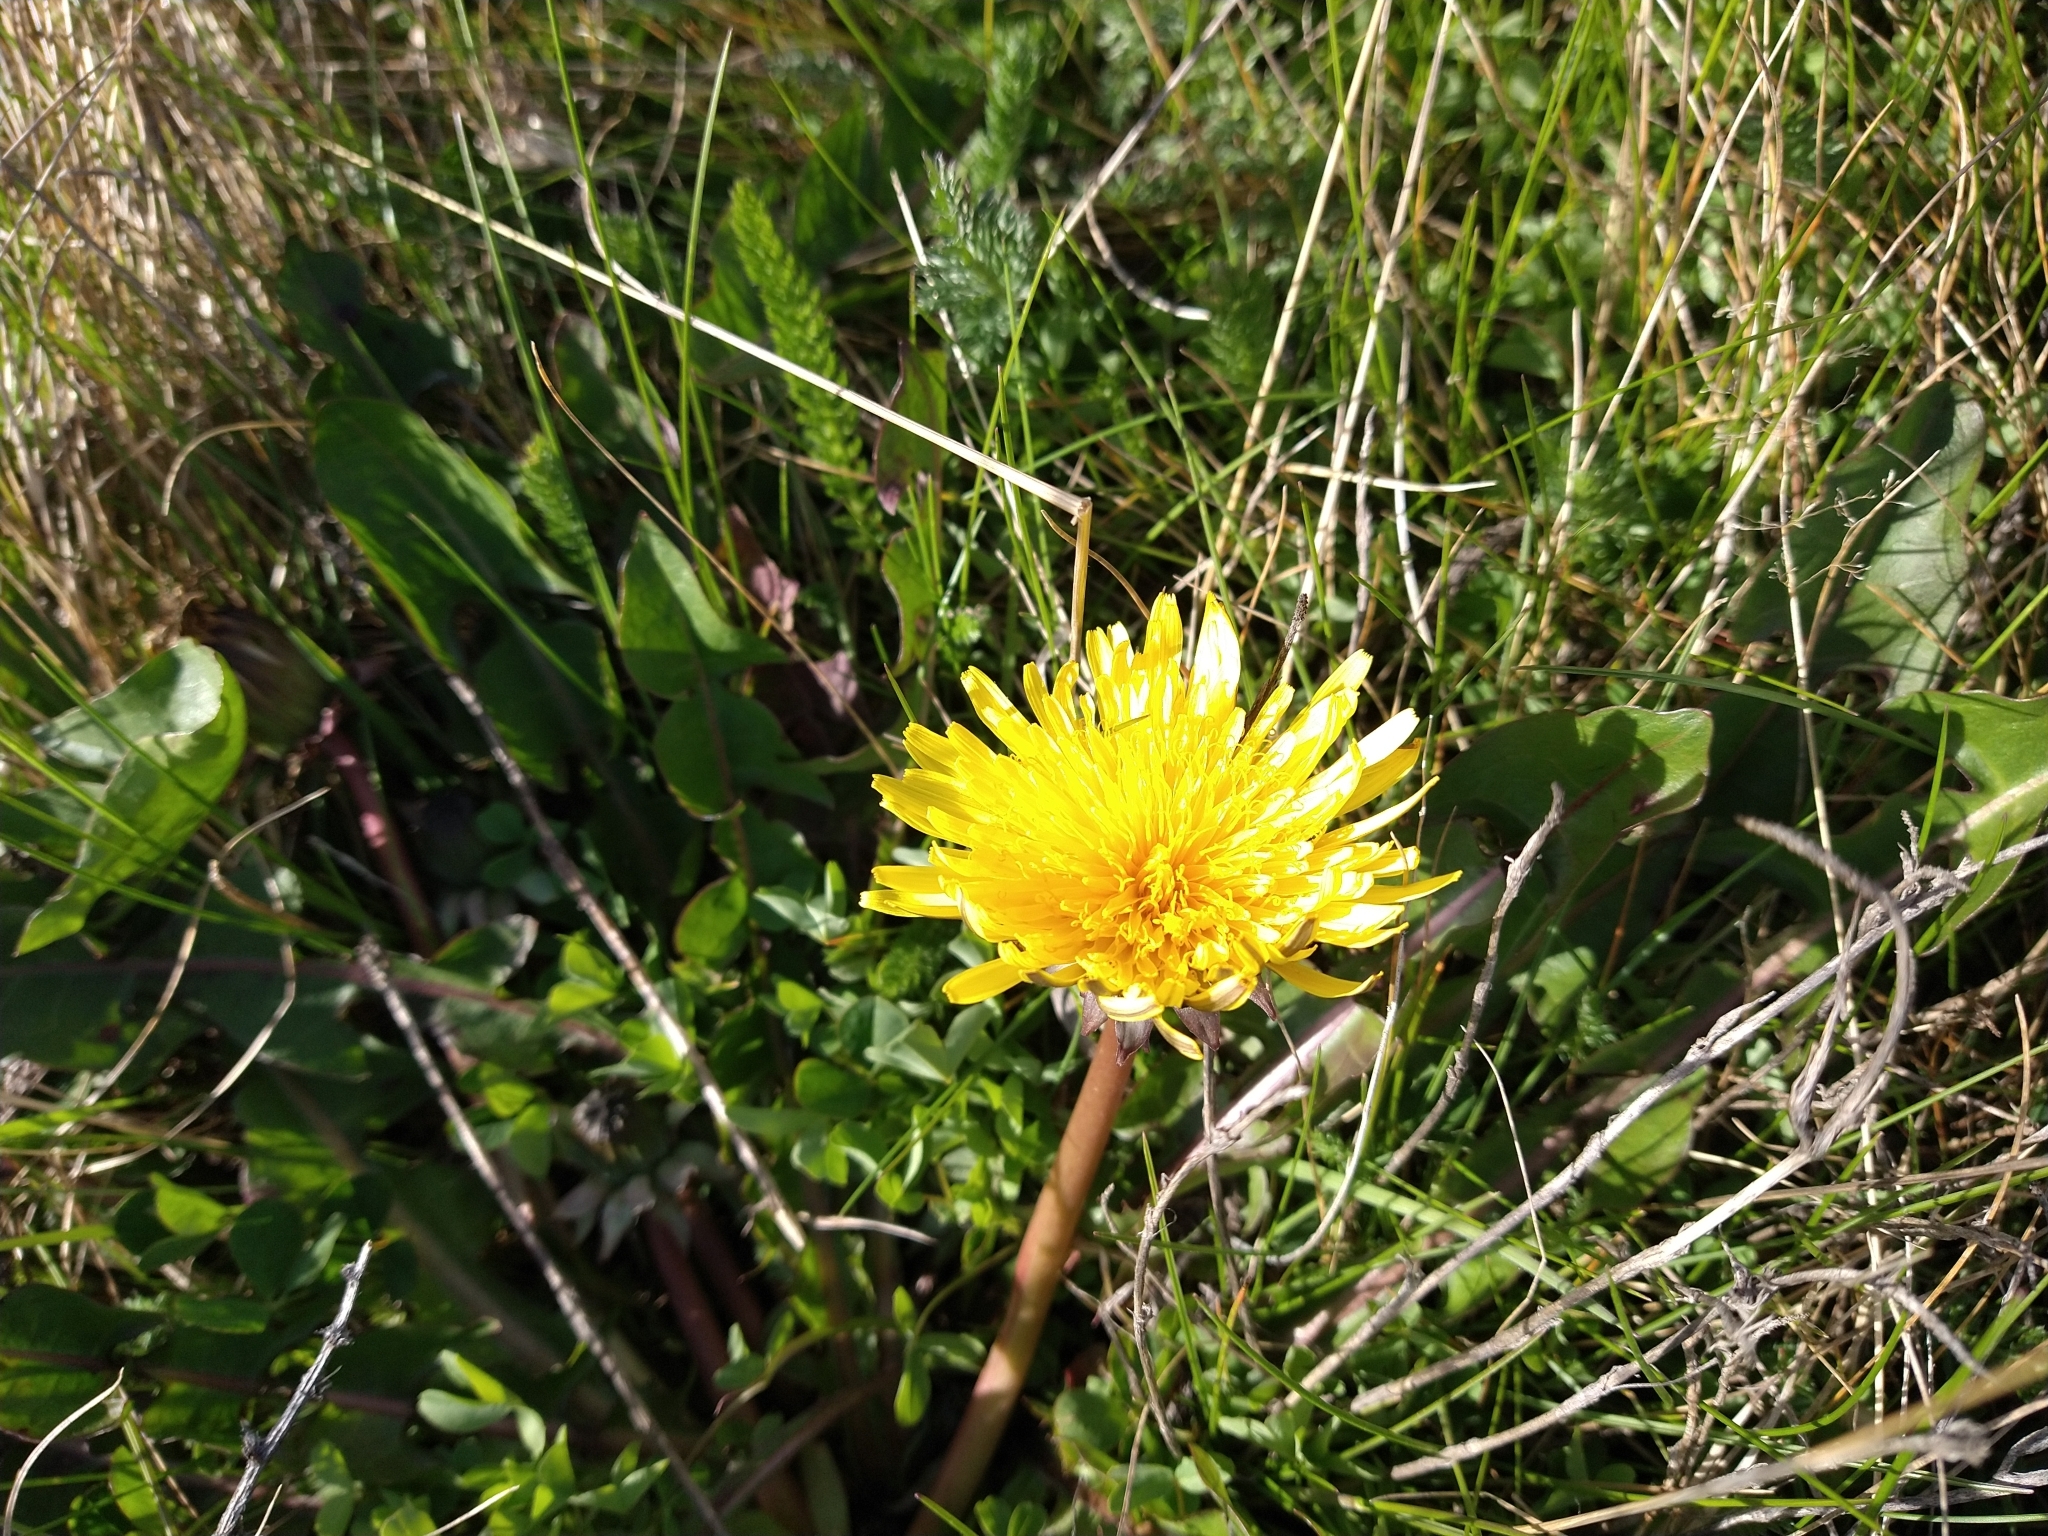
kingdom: Plantae
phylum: Tracheophyta
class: Magnoliopsida
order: Asterales
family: Asteraceae
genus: Taraxacum
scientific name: Taraxacum officinale
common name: Common dandelion
